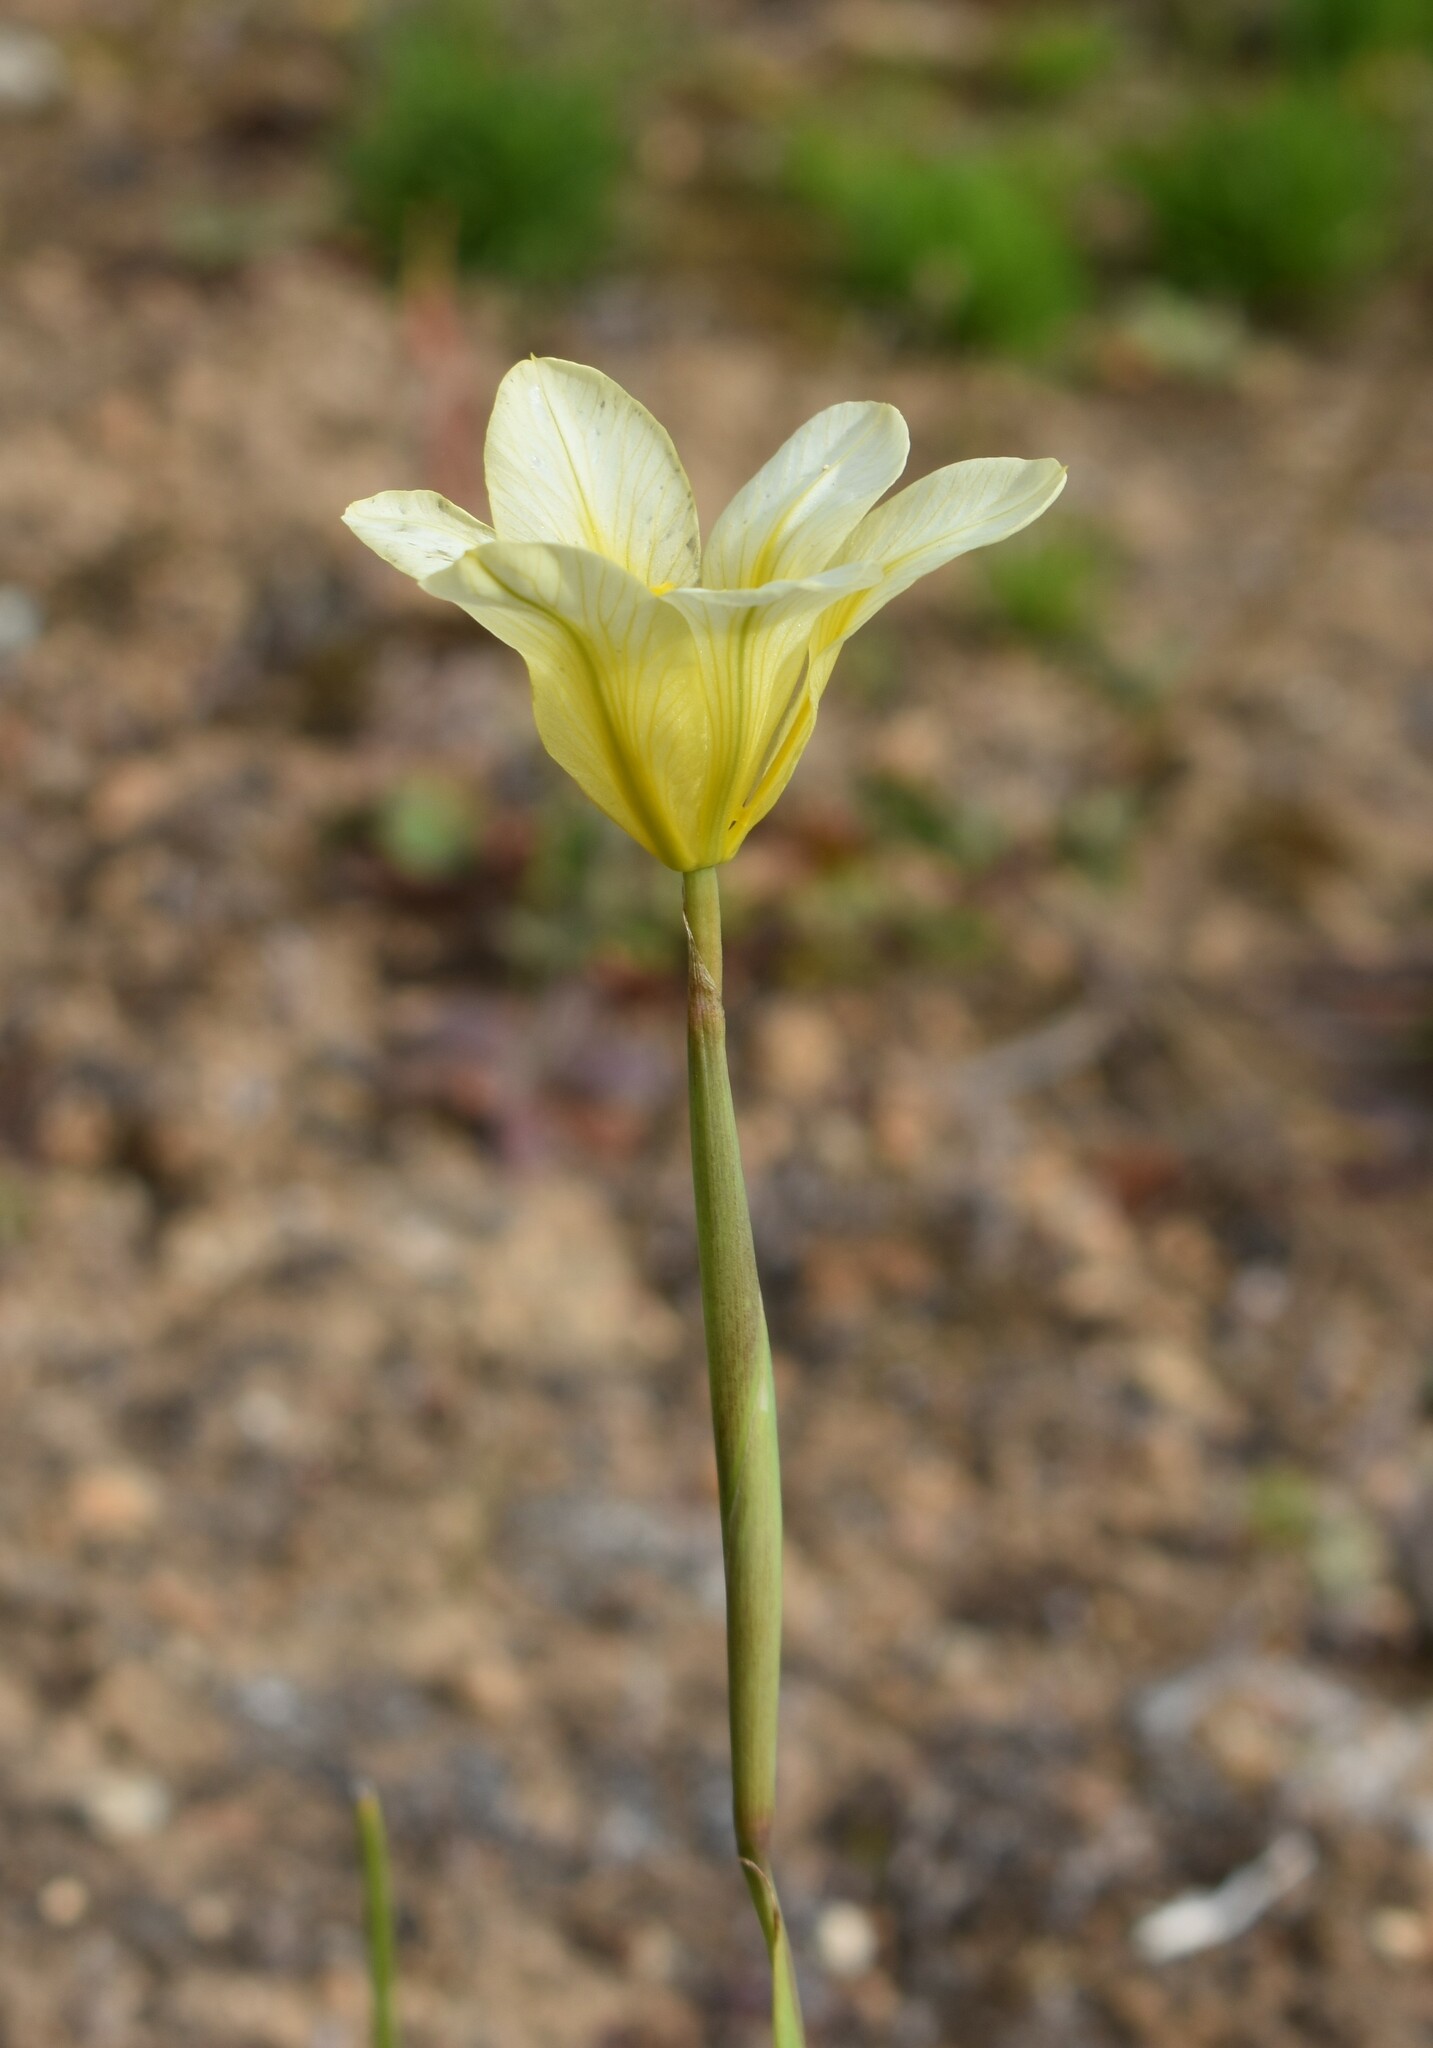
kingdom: Plantae
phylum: Tracheophyta
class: Liliopsida
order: Asparagales
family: Iridaceae
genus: Moraea
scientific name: Moraea ochroleuca
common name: Red tulp
